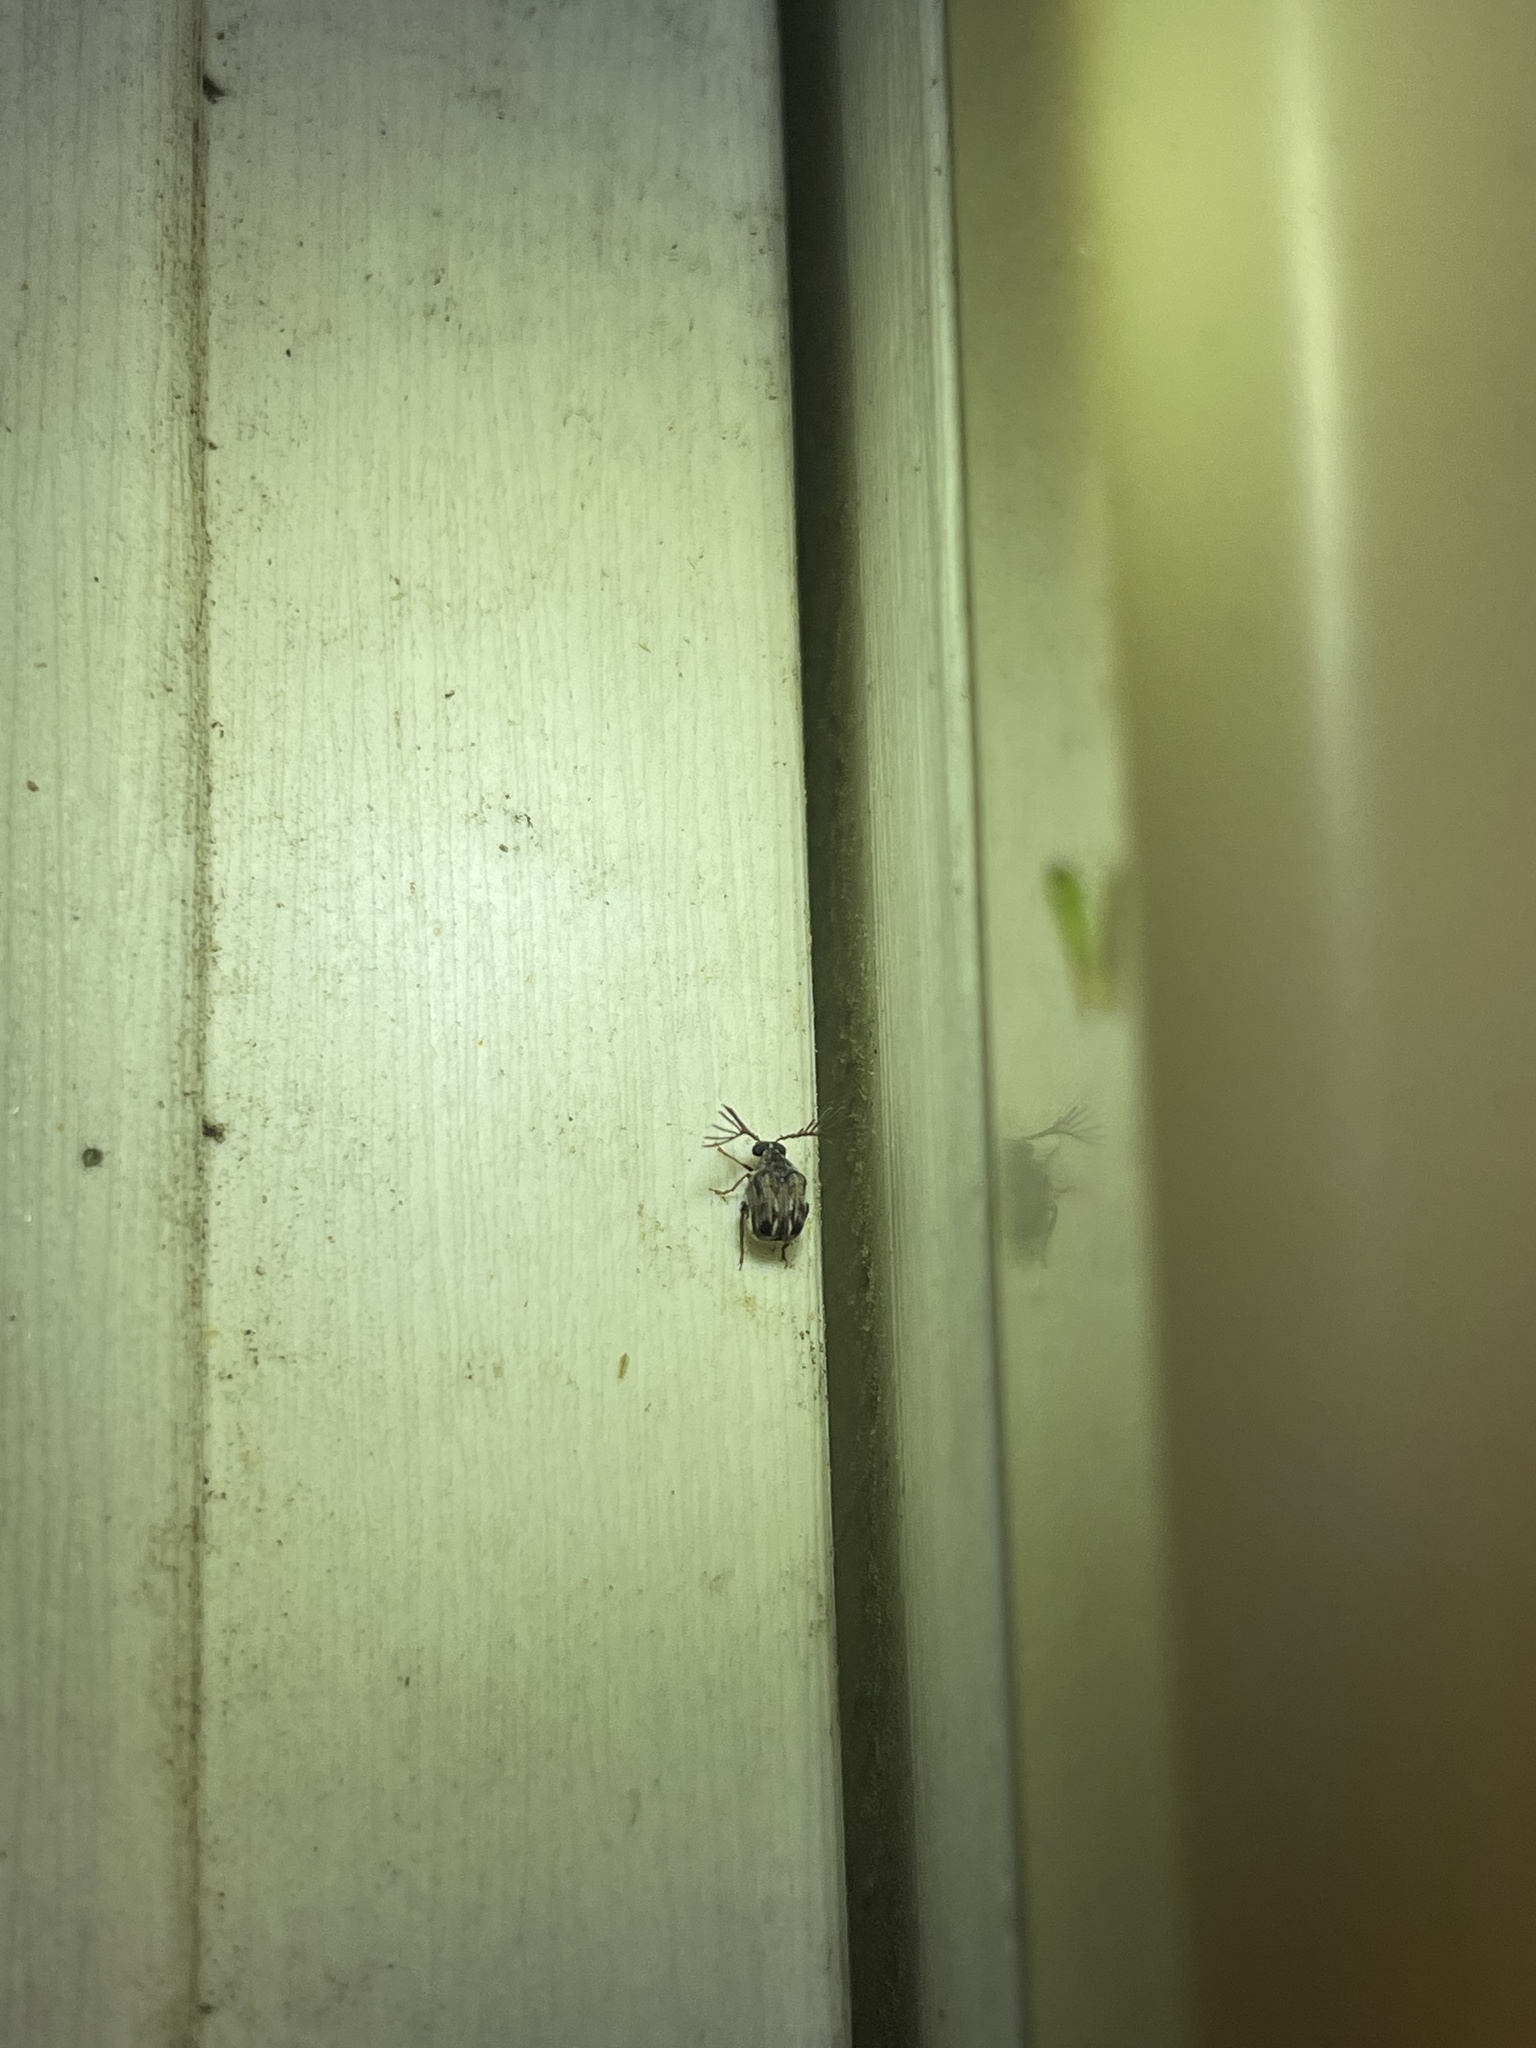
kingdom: Animalia
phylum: Arthropoda
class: Insecta
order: Coleoptera
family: Chrysomelidae
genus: Megacerus
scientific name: Megacerus cubiculus
